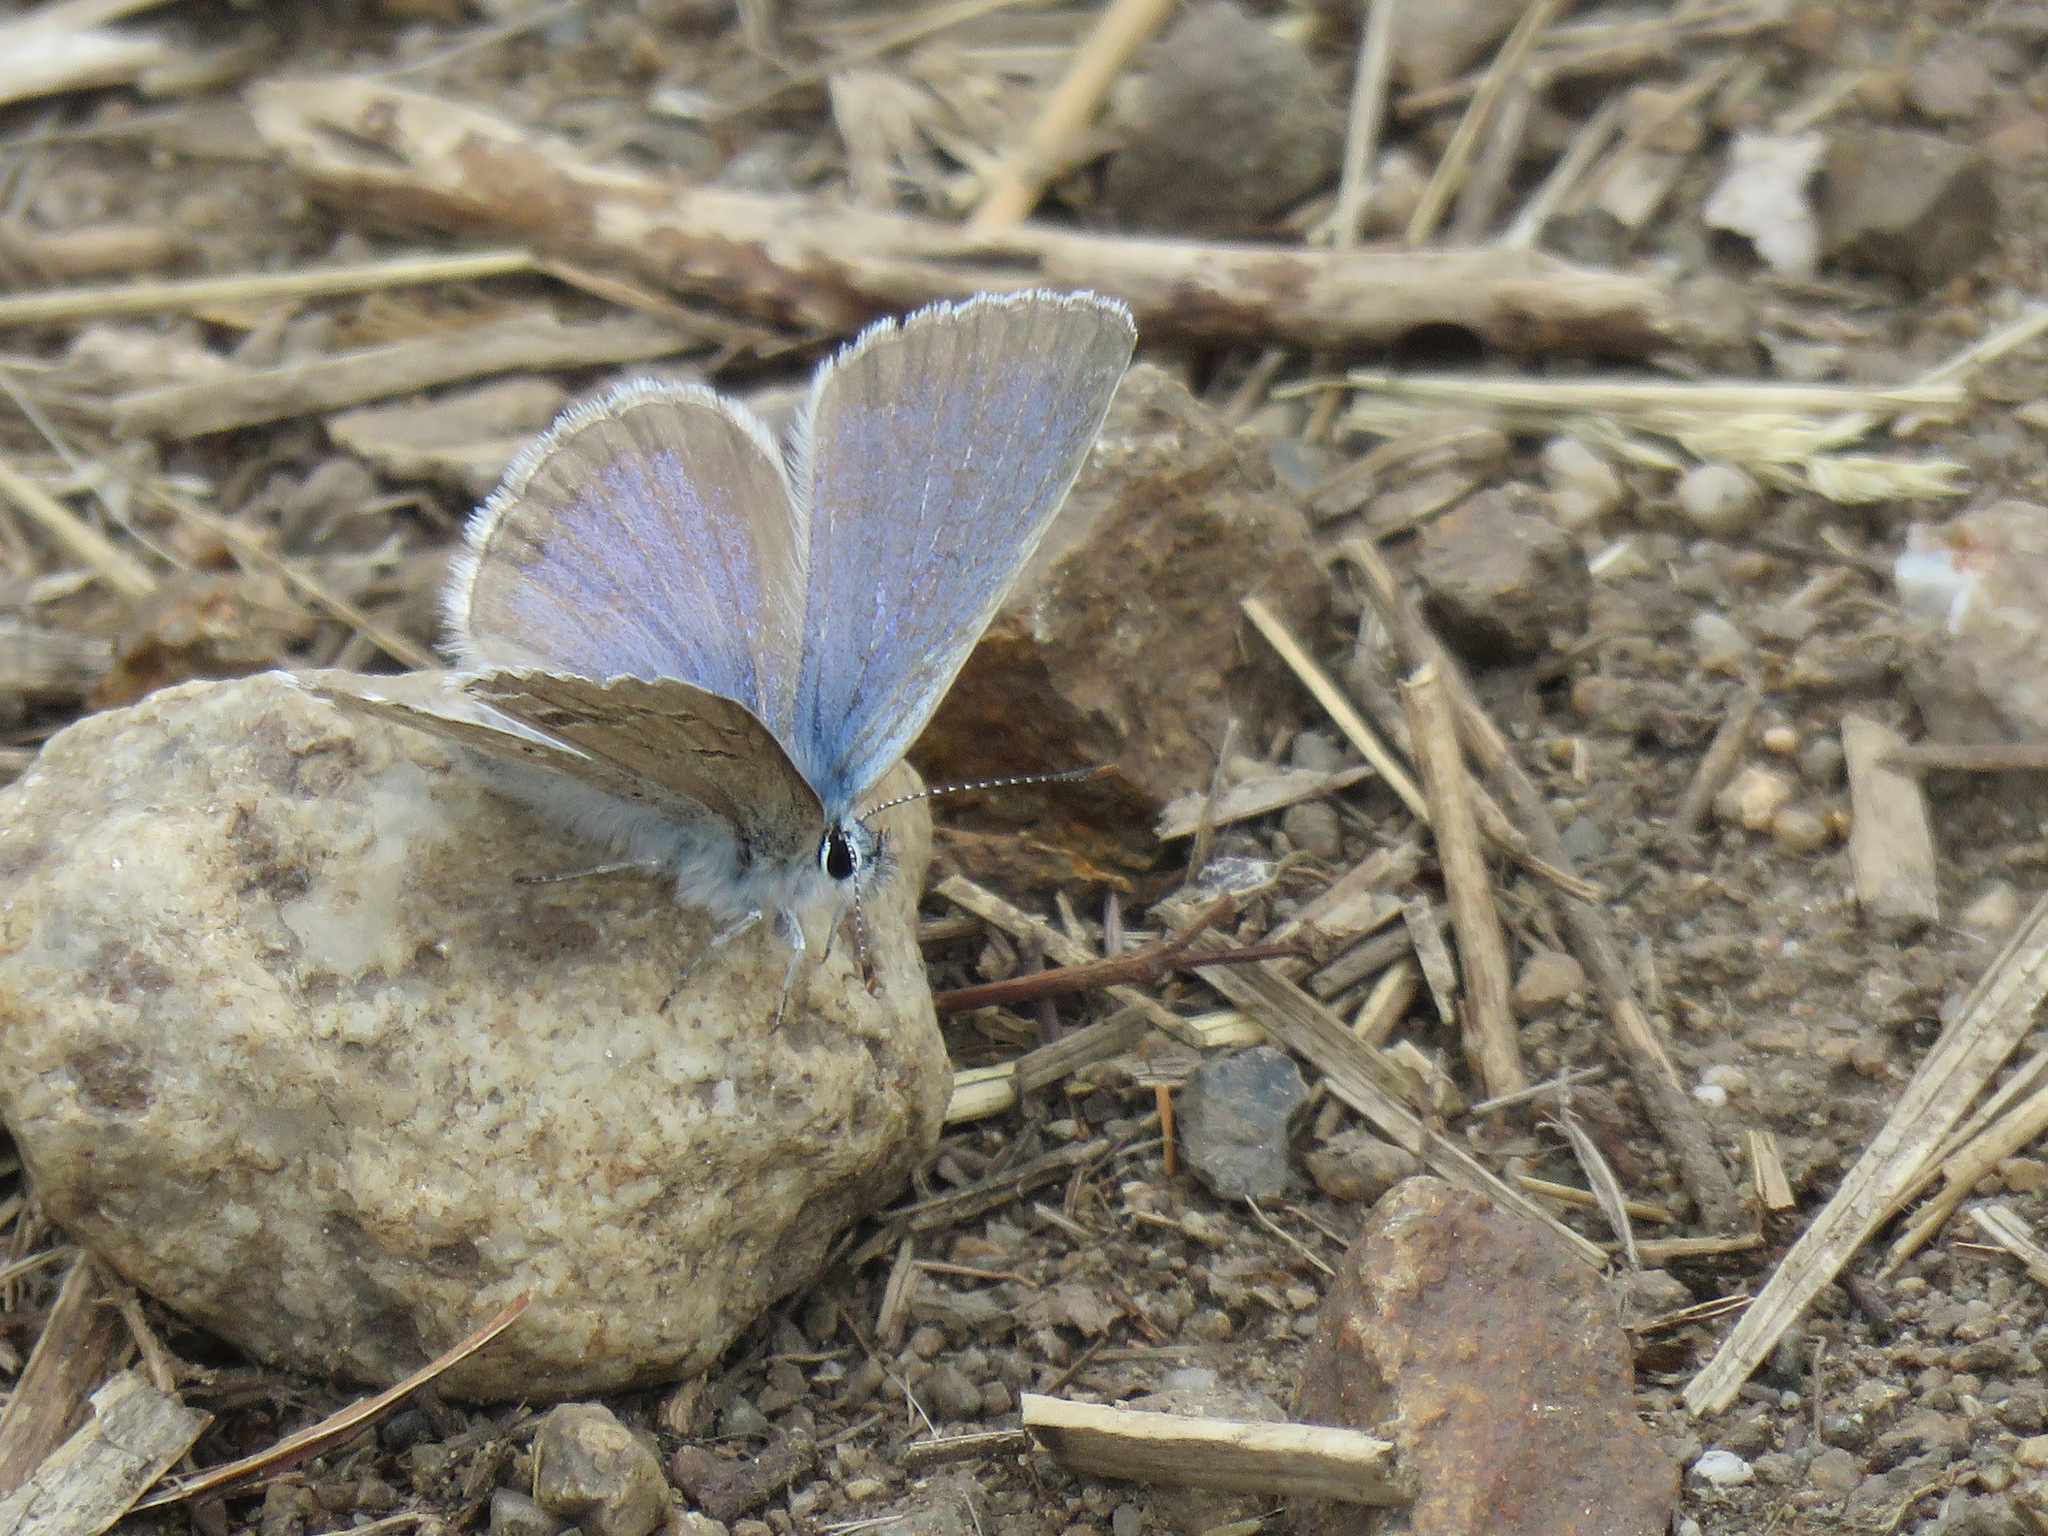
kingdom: Animalia
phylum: Arthropoda
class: Insecta
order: Lepidoptera
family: Lycaenidae
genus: Icaricia
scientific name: Icaricia icarioides
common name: Boisduval's blue
